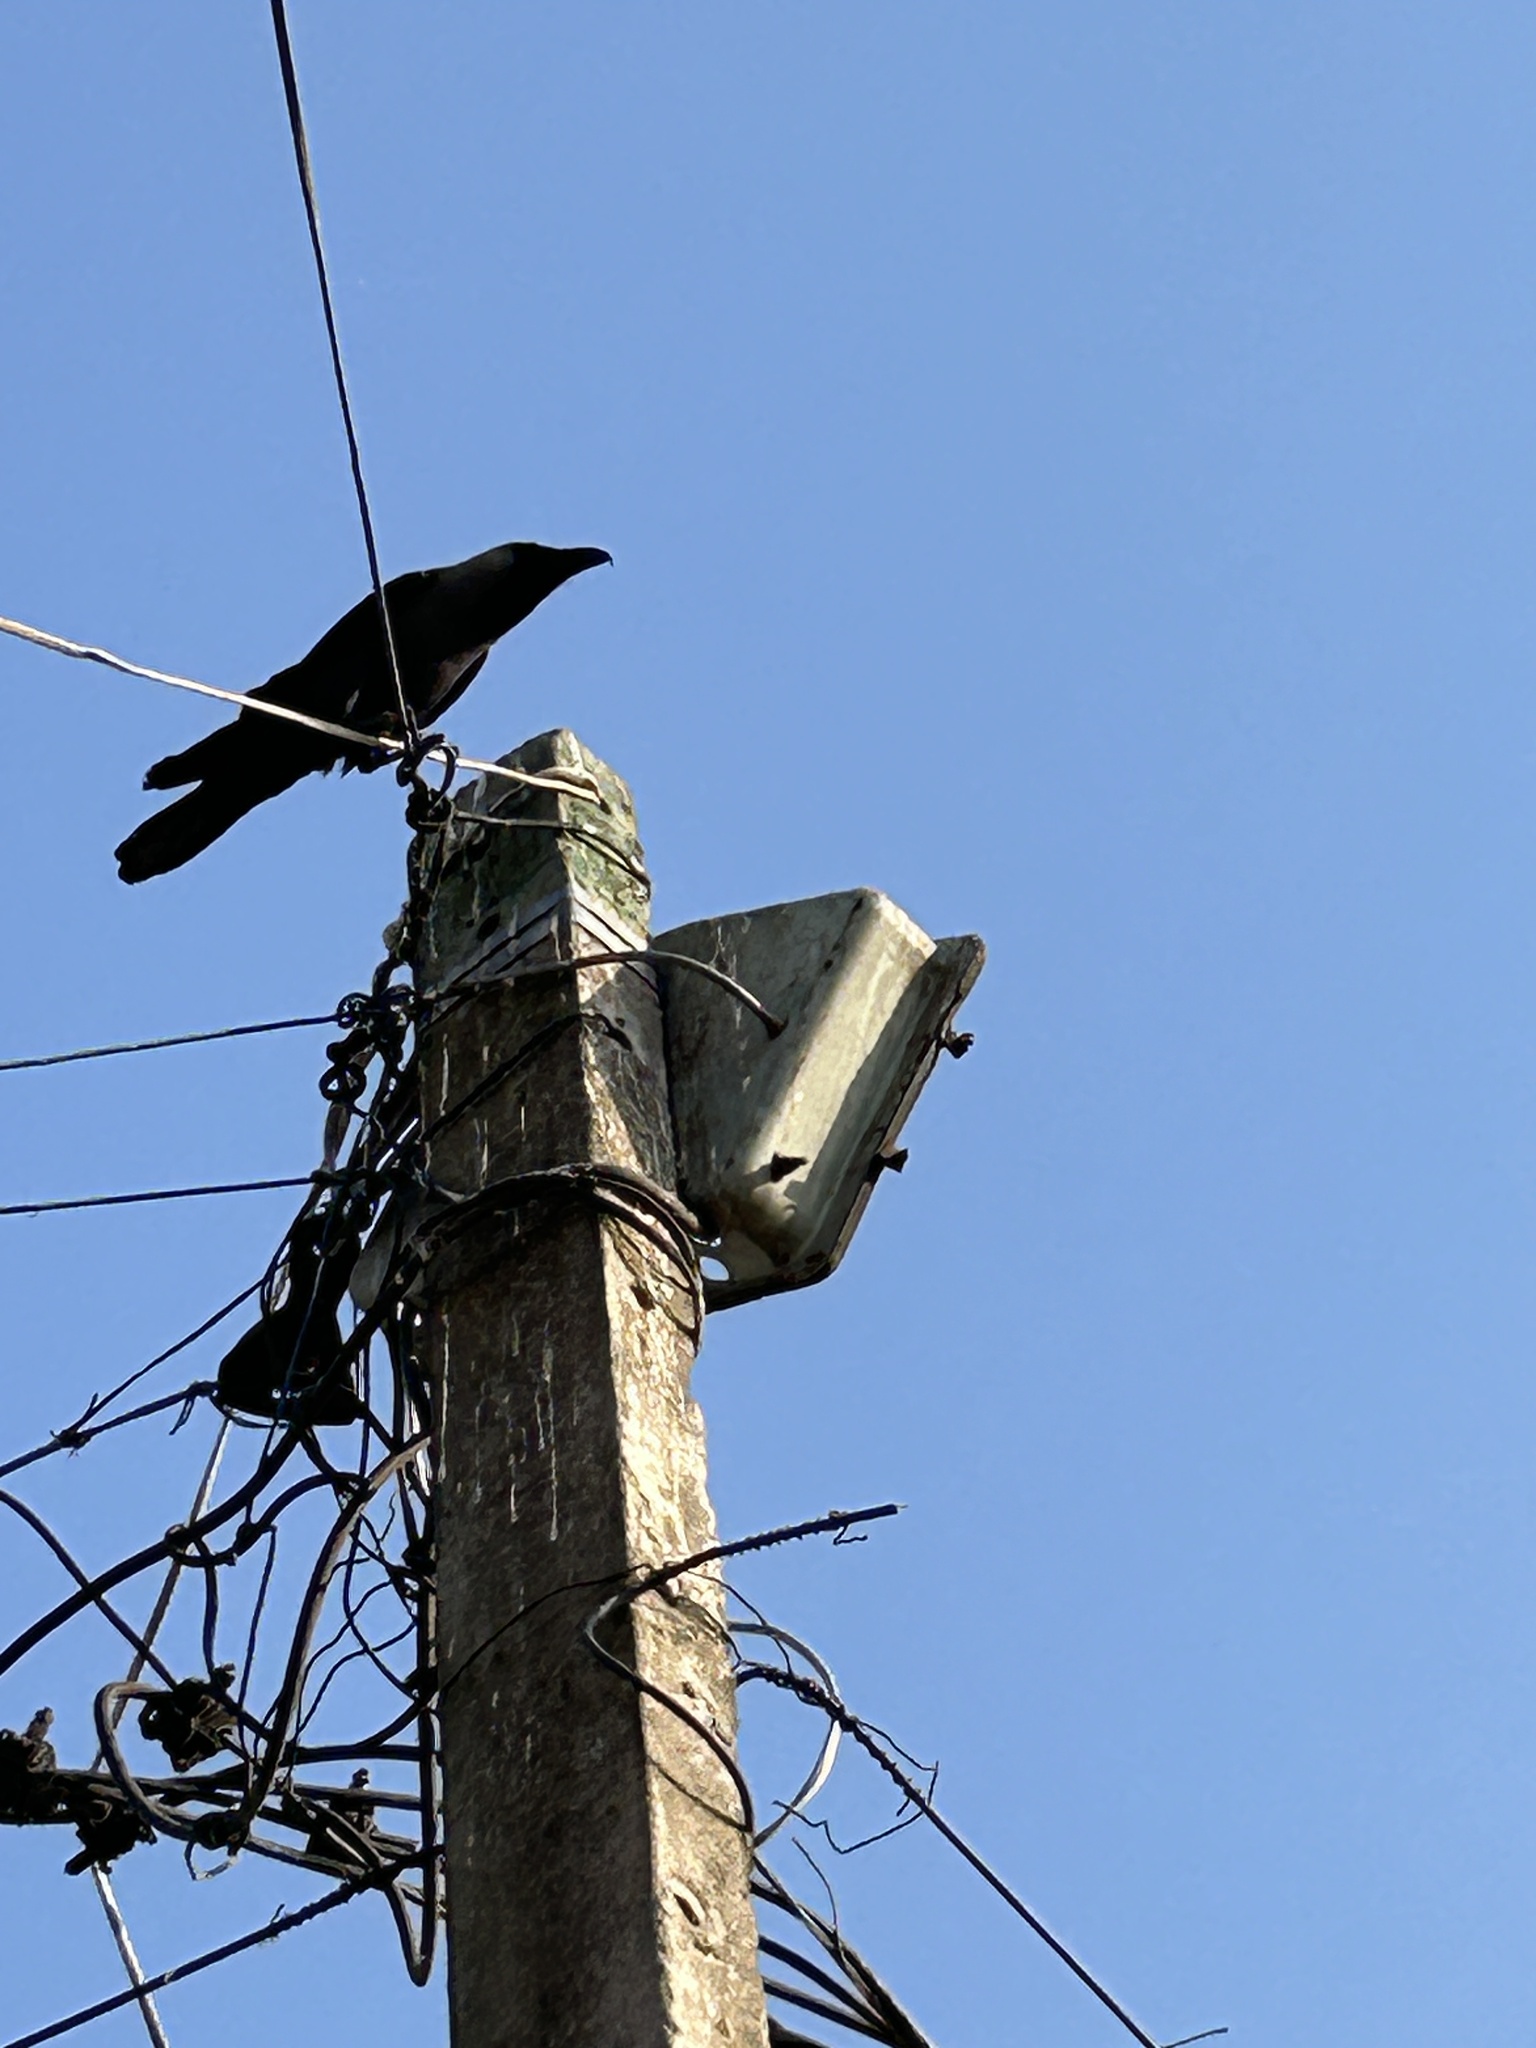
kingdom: Animalia
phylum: Chordata
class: Aves
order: Passeriformes
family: Corvidae
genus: Corvus
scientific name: Corvus splendens
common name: House crow
